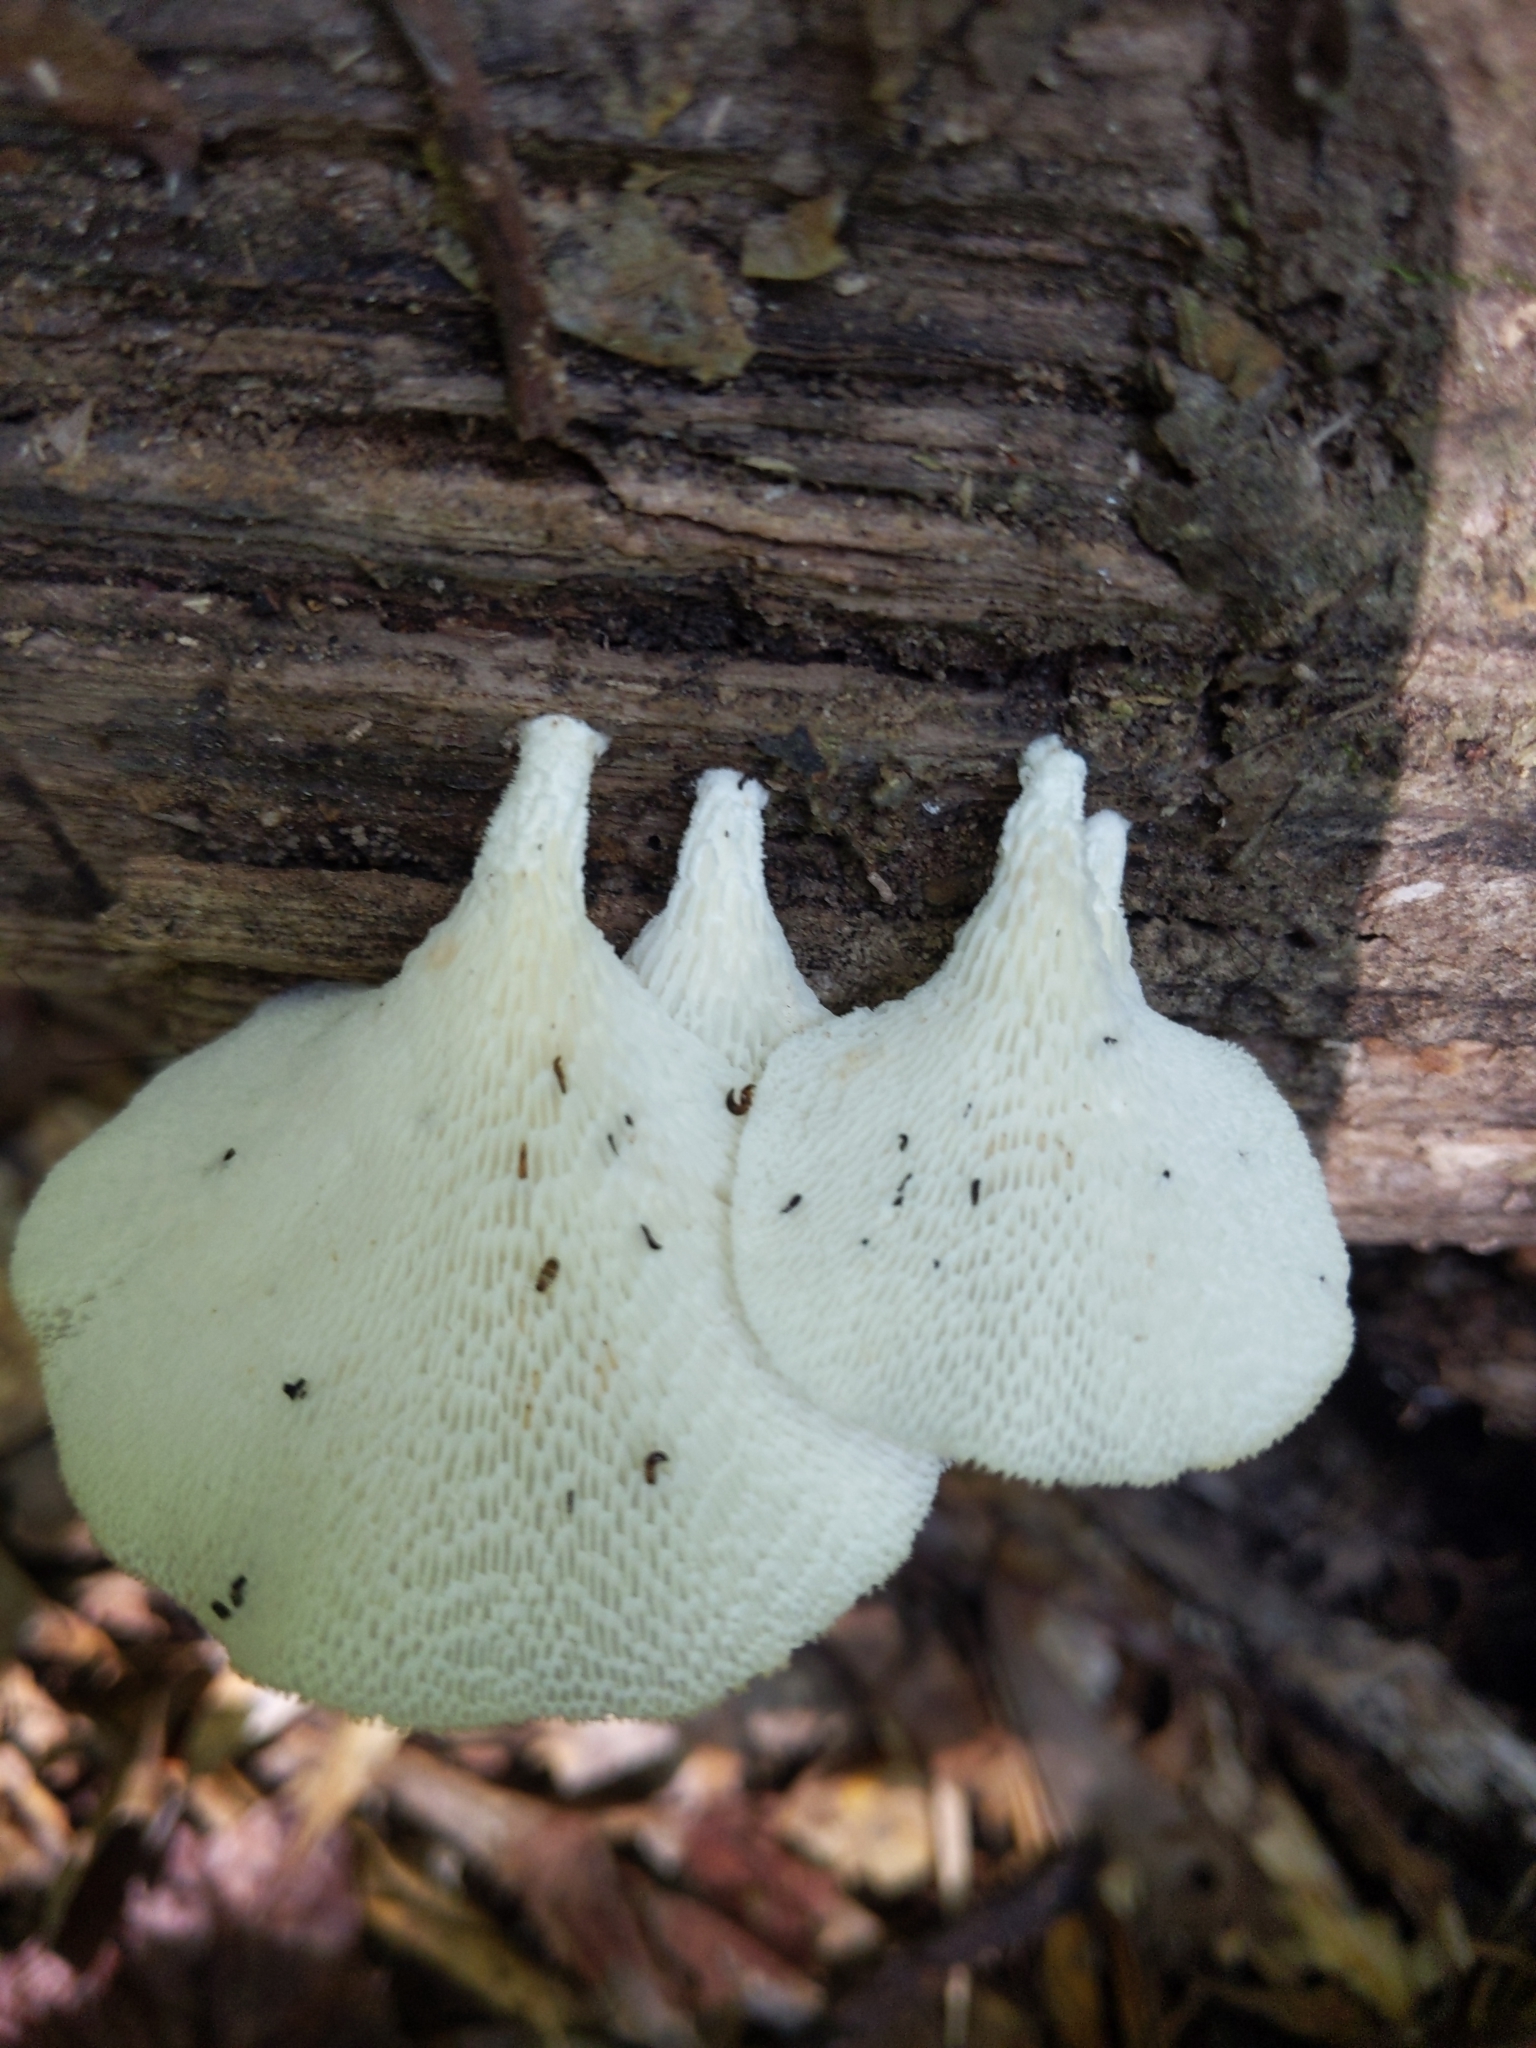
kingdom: Fungi
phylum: Basidiomycota
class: Agaricomycetes
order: Polyporales
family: Polyporaceae
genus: Favolus
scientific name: Favolus tenuiculus
